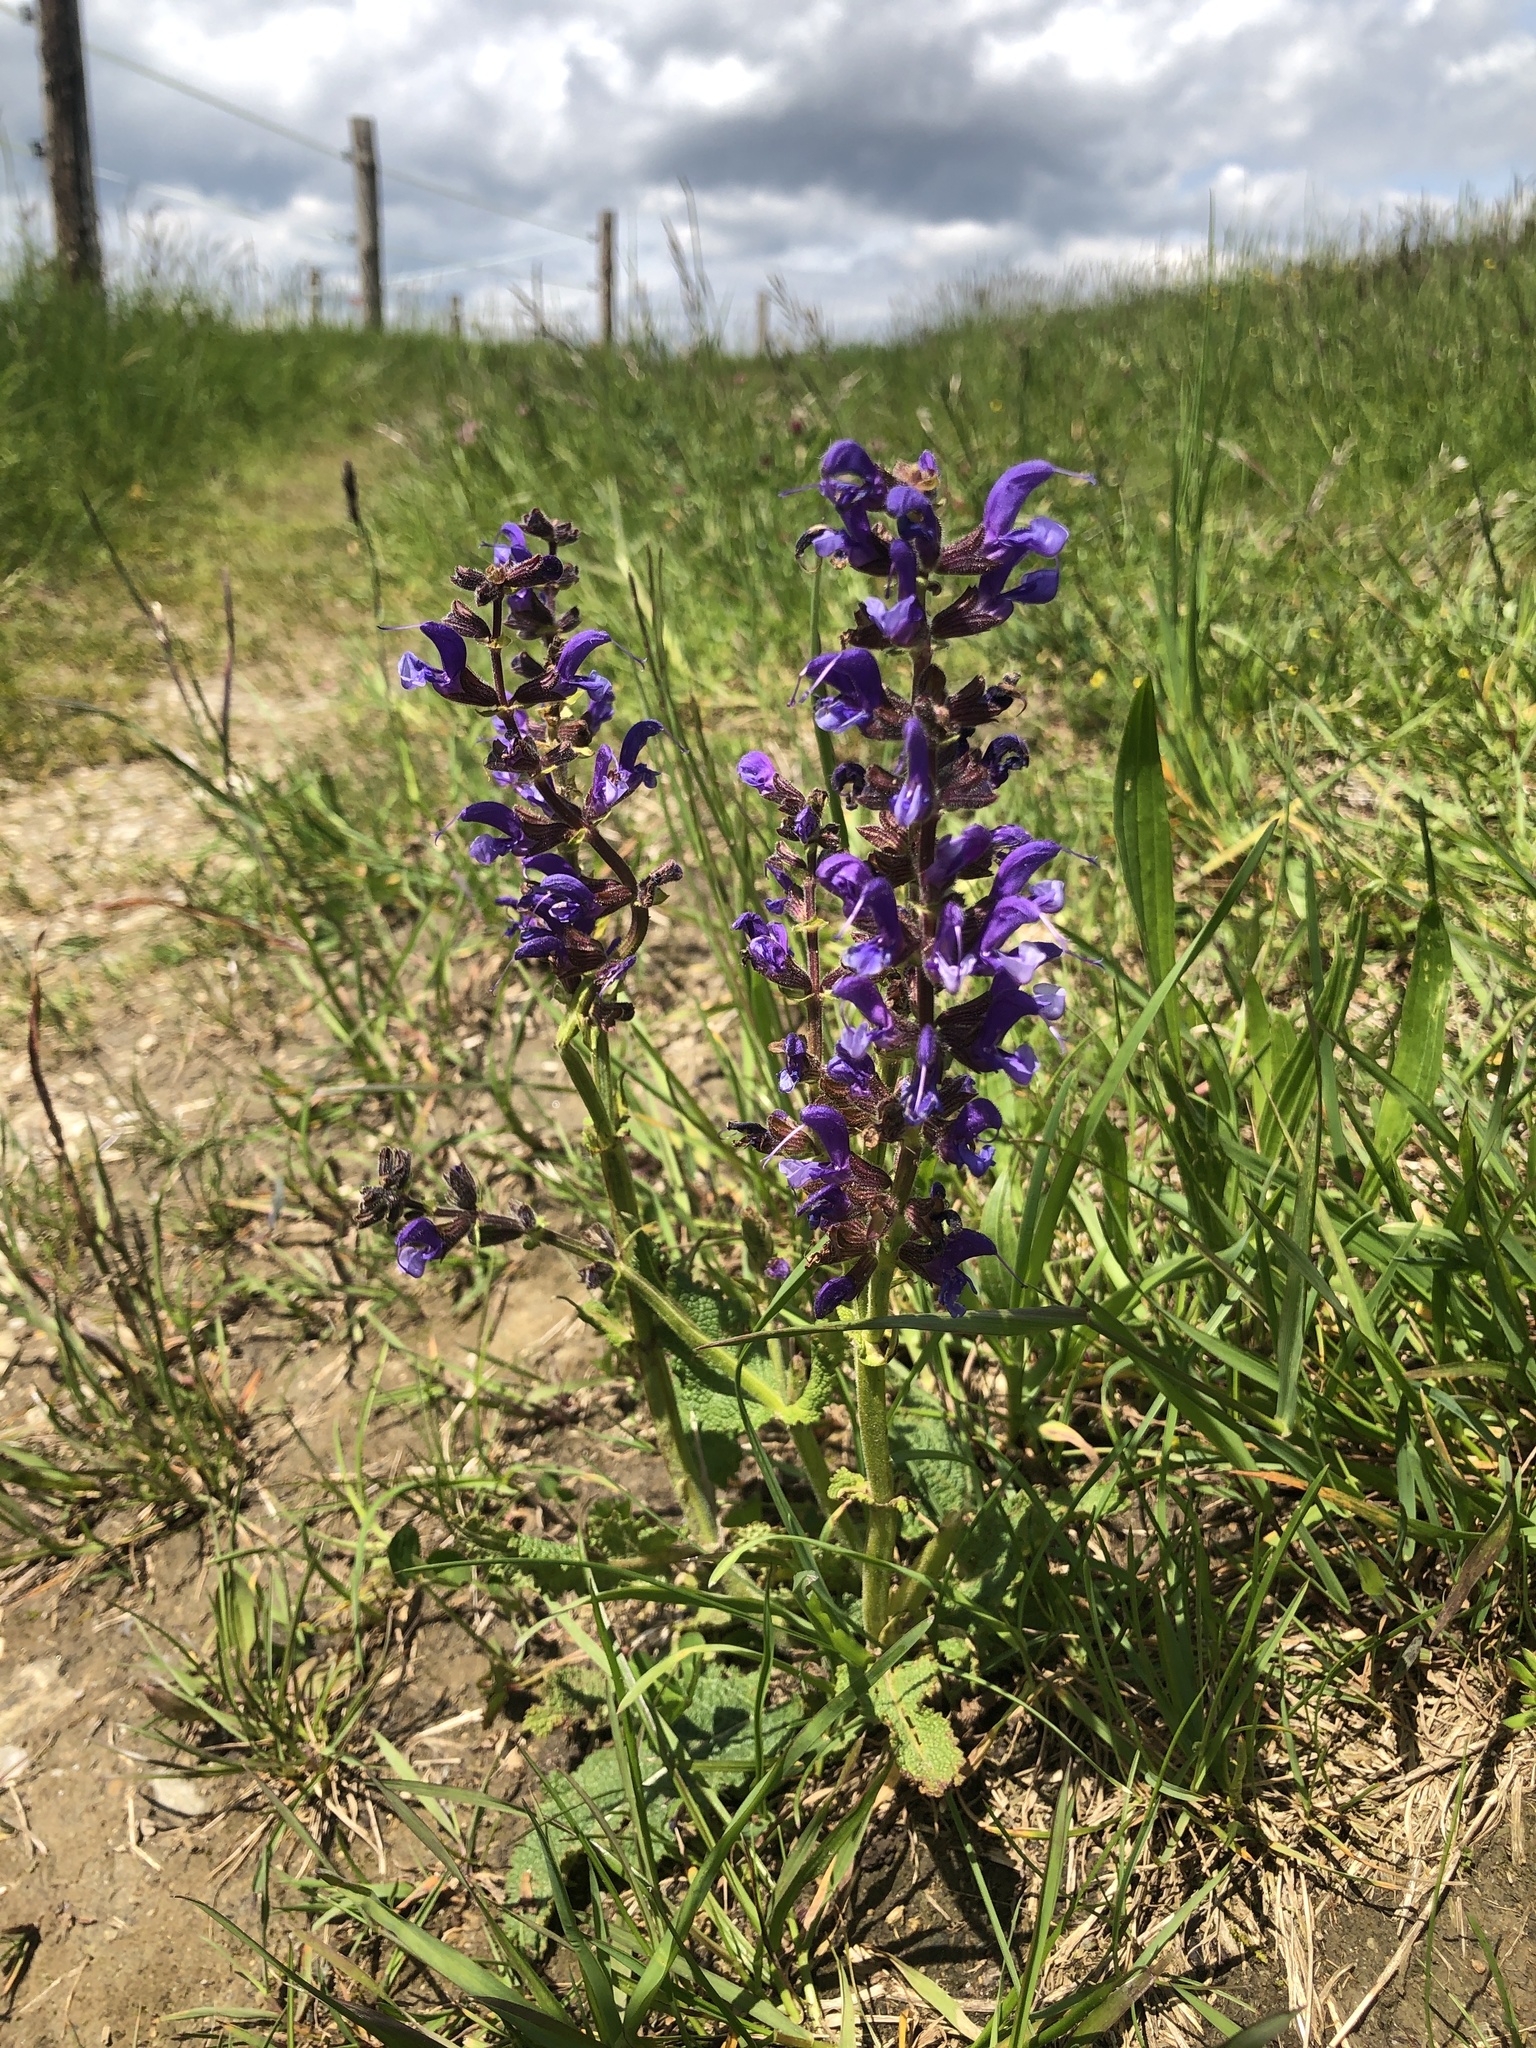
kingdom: Plantae
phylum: Tracheophyta
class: Magnoliopsida
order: Lamiales
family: Lamiaceae
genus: Salvia
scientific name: Salvia pratensis
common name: Meadow sage
